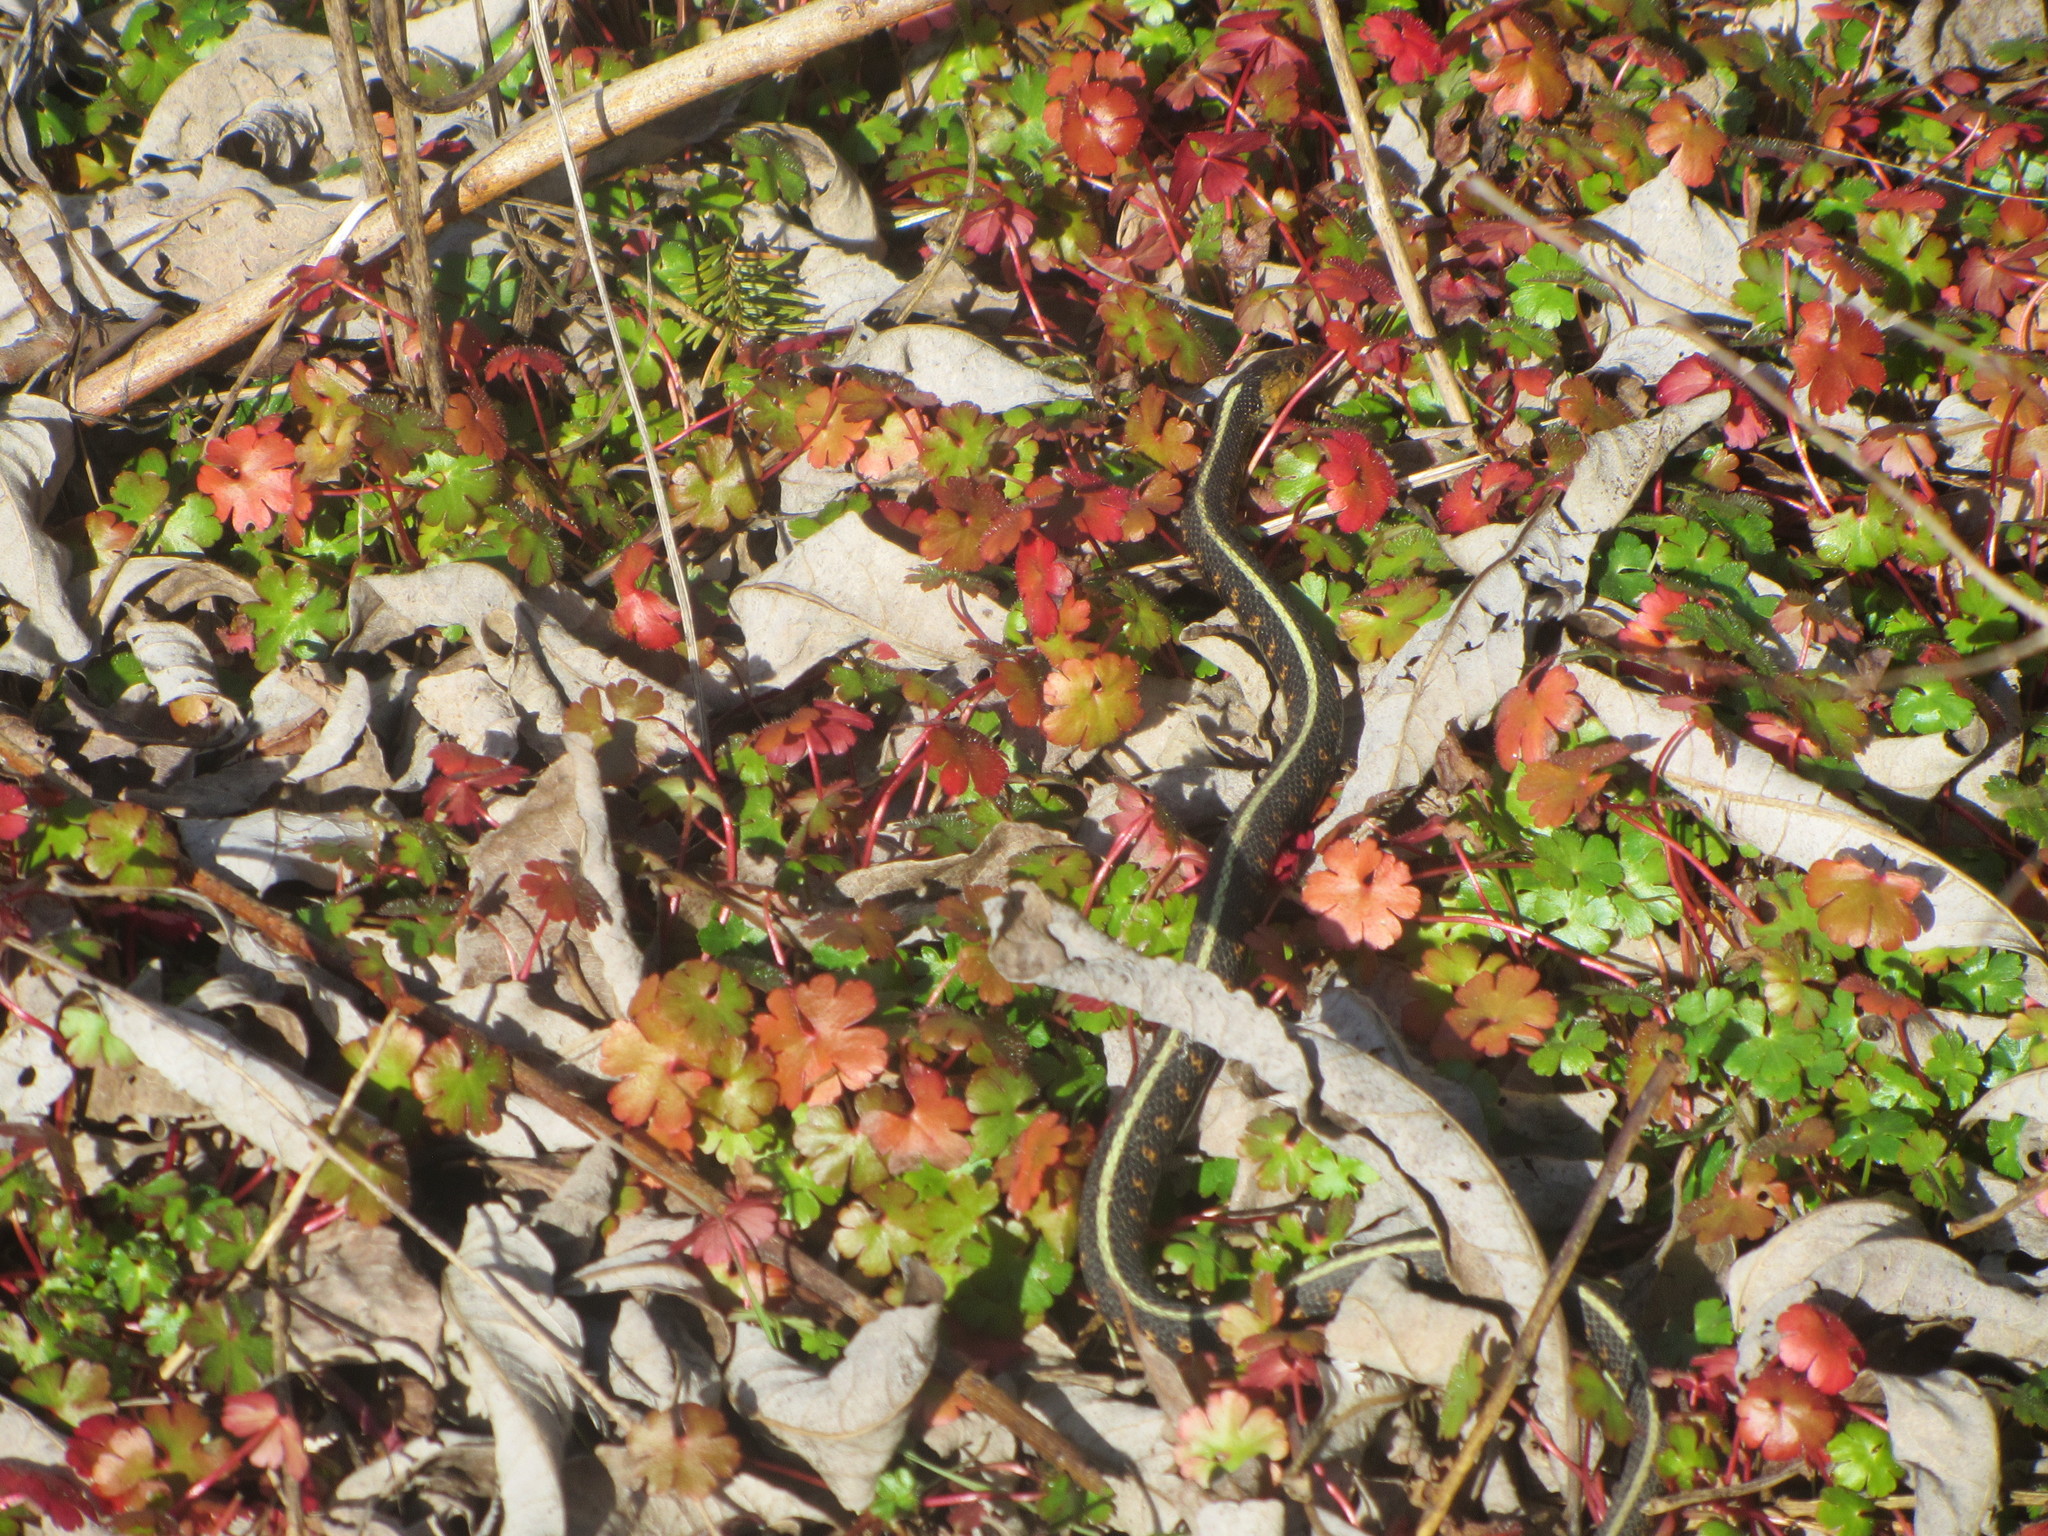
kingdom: Animalia
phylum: Chordata
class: Squamata
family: Colubridae
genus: Thamnophis
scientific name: Thamnophis sirtalis
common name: Common garter snake
